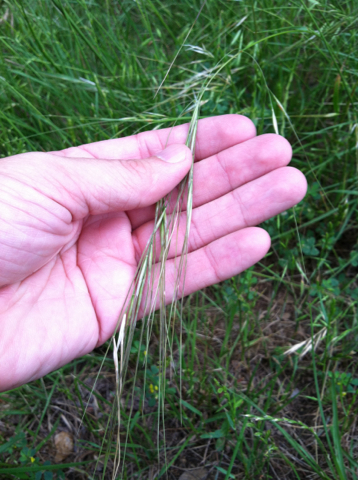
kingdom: Plantae
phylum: Tracheophyta
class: Liliopsida
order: Poales
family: Poaceae
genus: Nassella
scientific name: Nassella leucotricha
